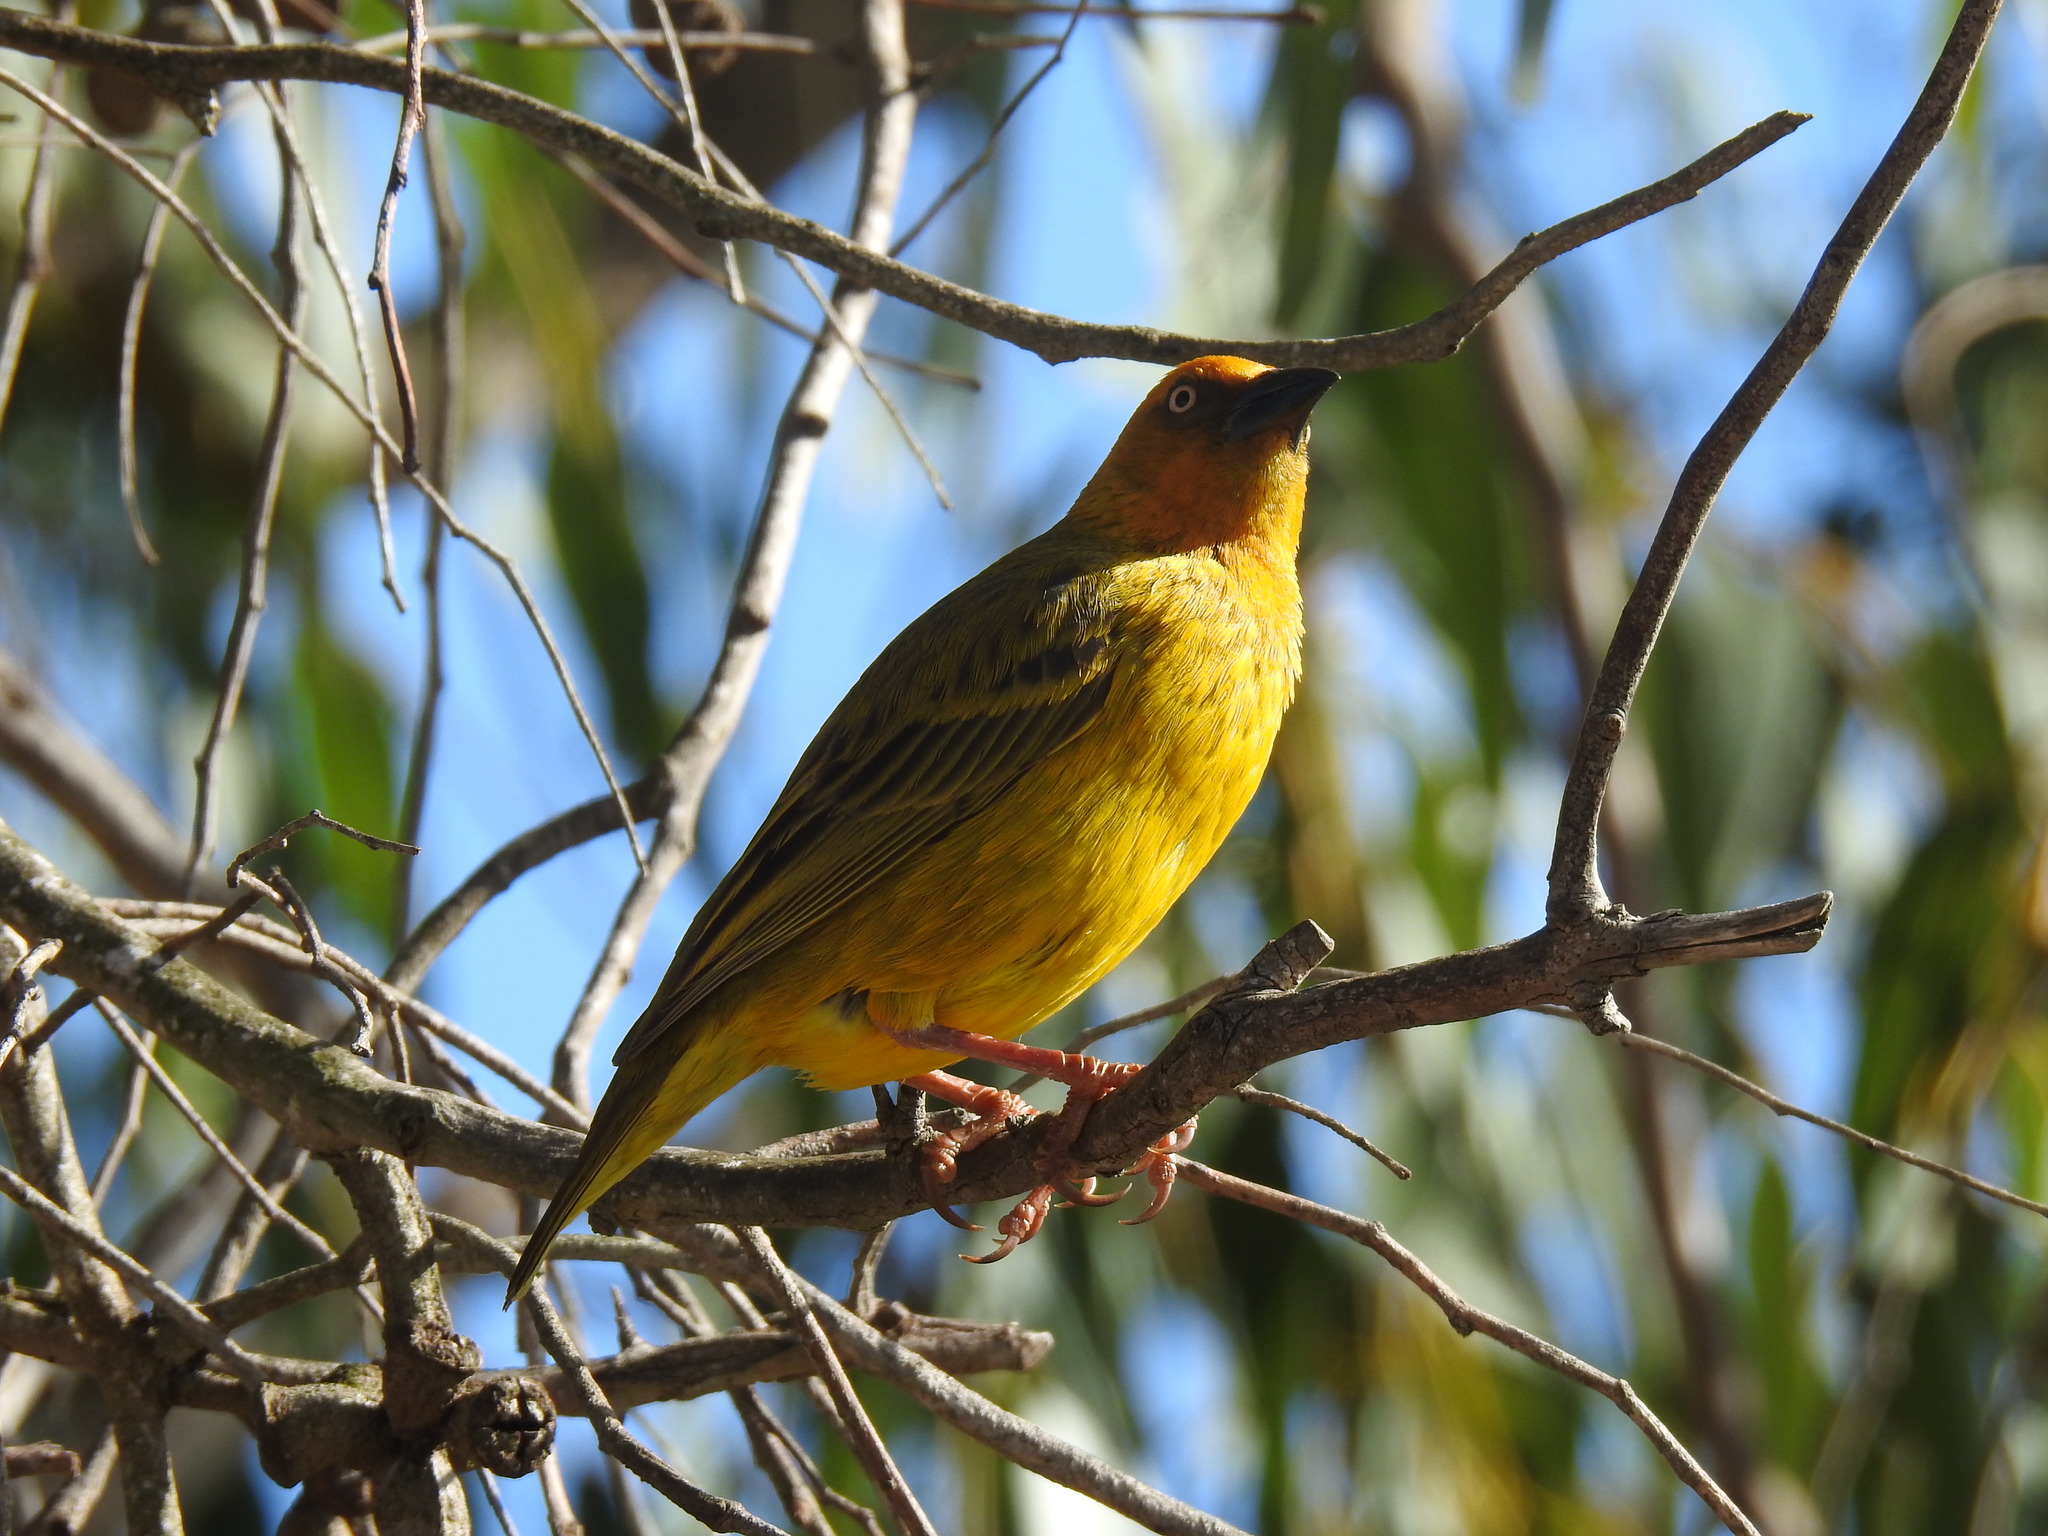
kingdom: Animalia
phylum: Chordata
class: Aves
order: Passeriformes
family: Ploceidae
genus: Ploceus
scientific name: Ploceus capensis
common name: Cape weaver
